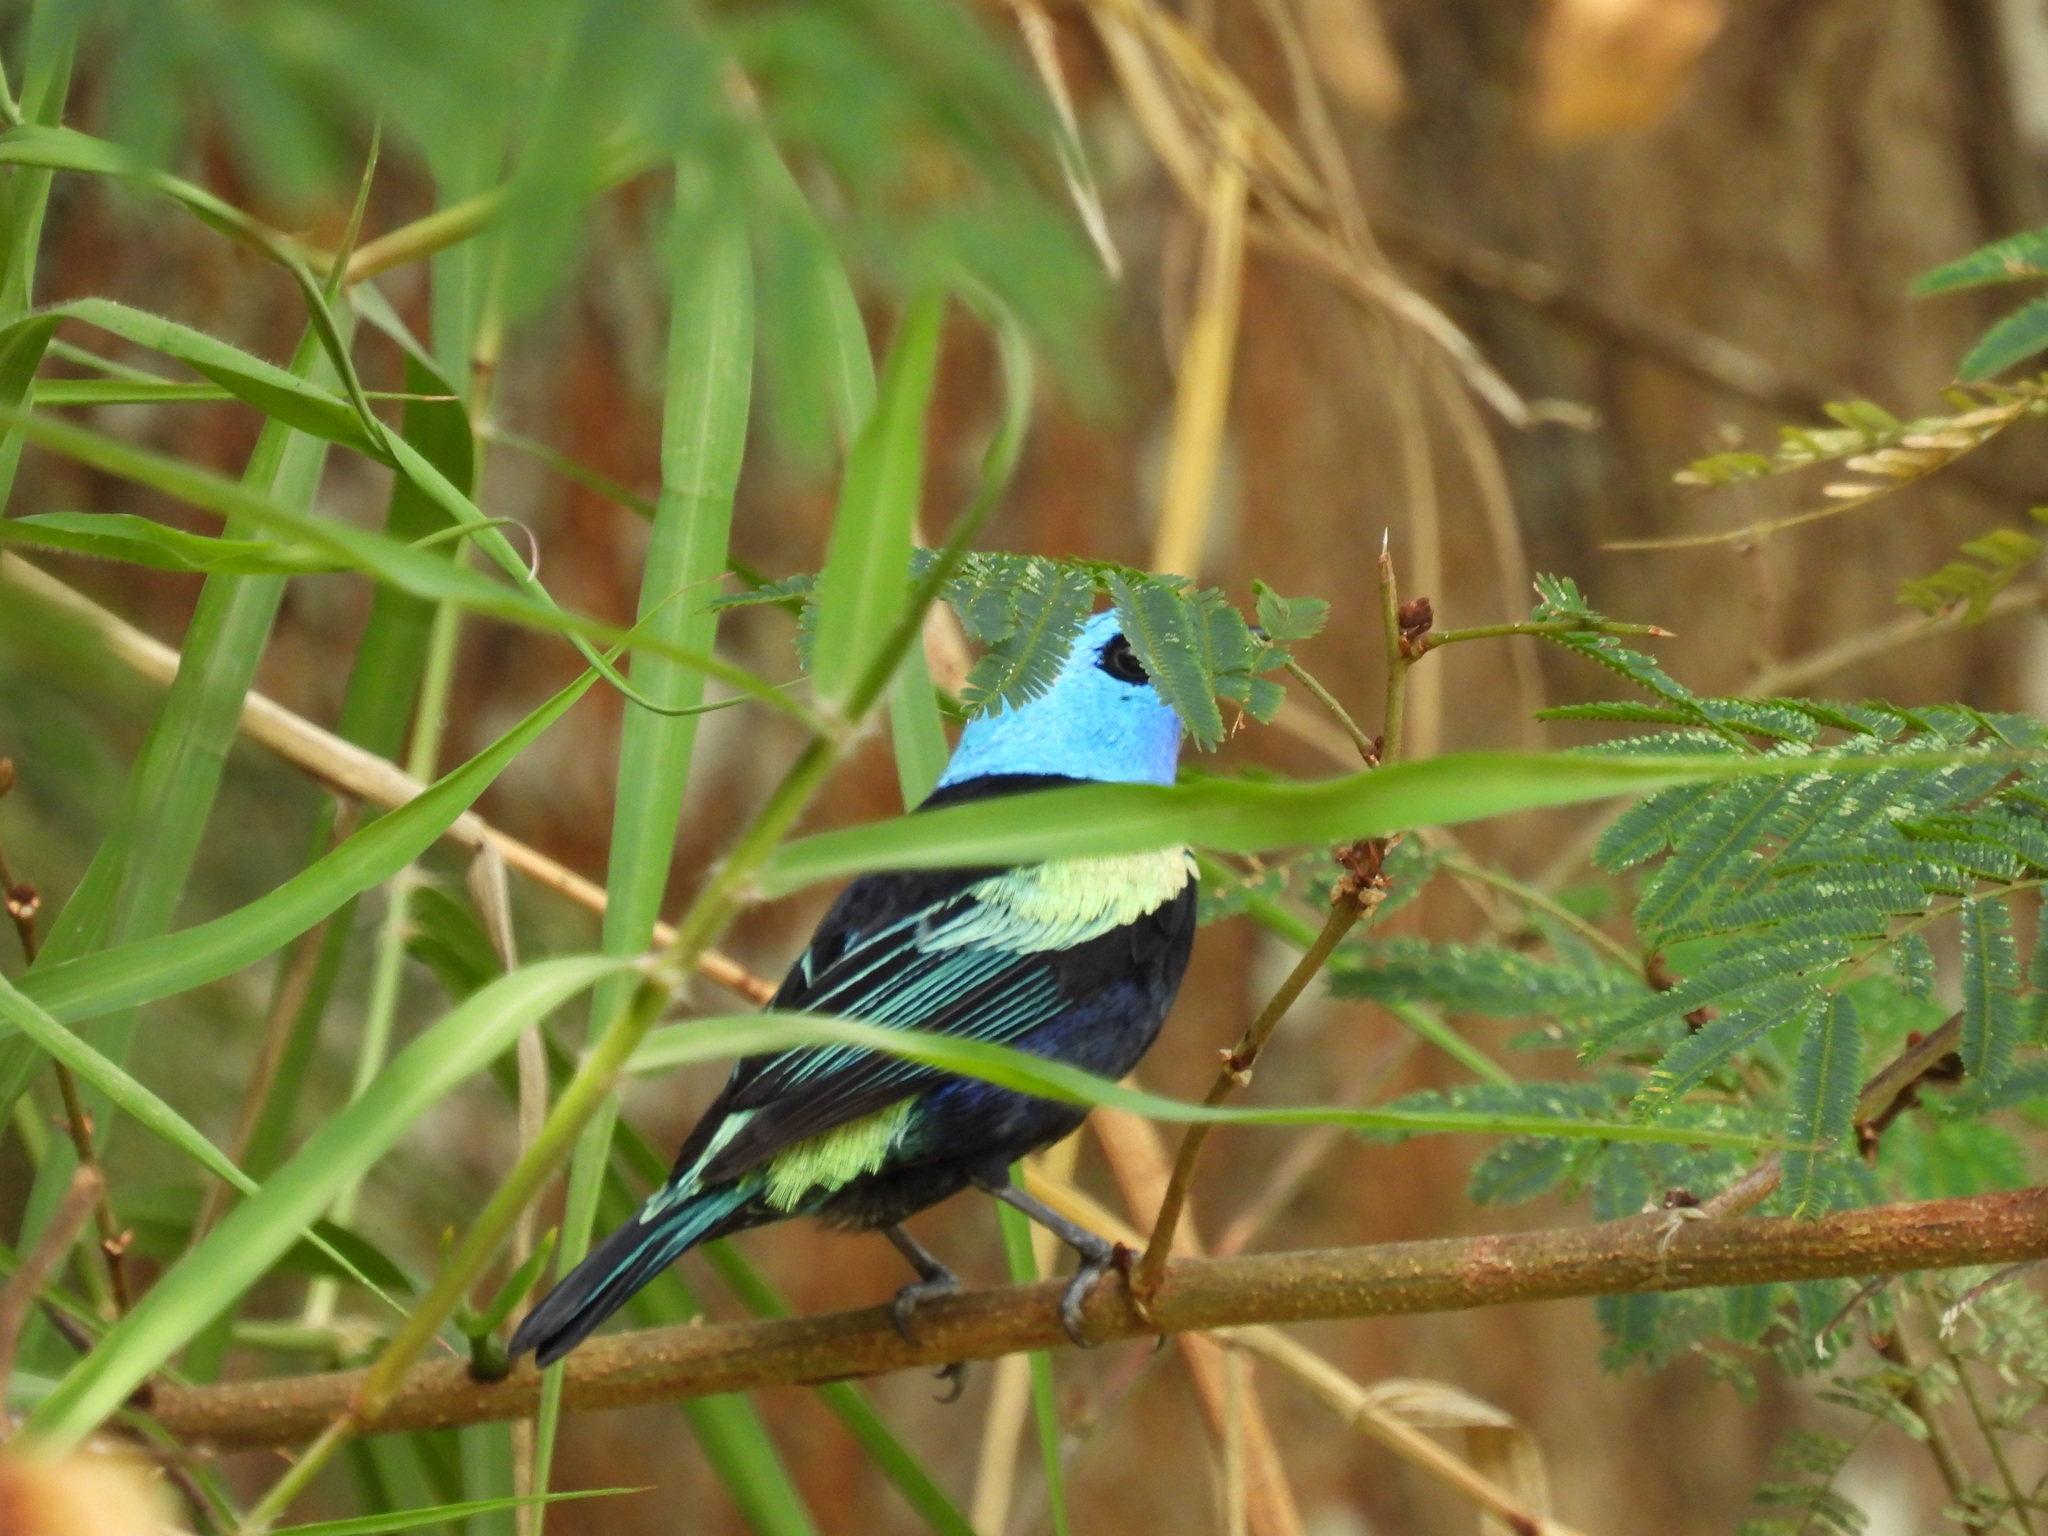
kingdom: Animalia
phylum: Chordata
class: Aves
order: Passeriformes
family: Thraupidae
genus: Stilpnia
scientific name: Stilpnia cyanicollis
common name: Blue-necked tanager
